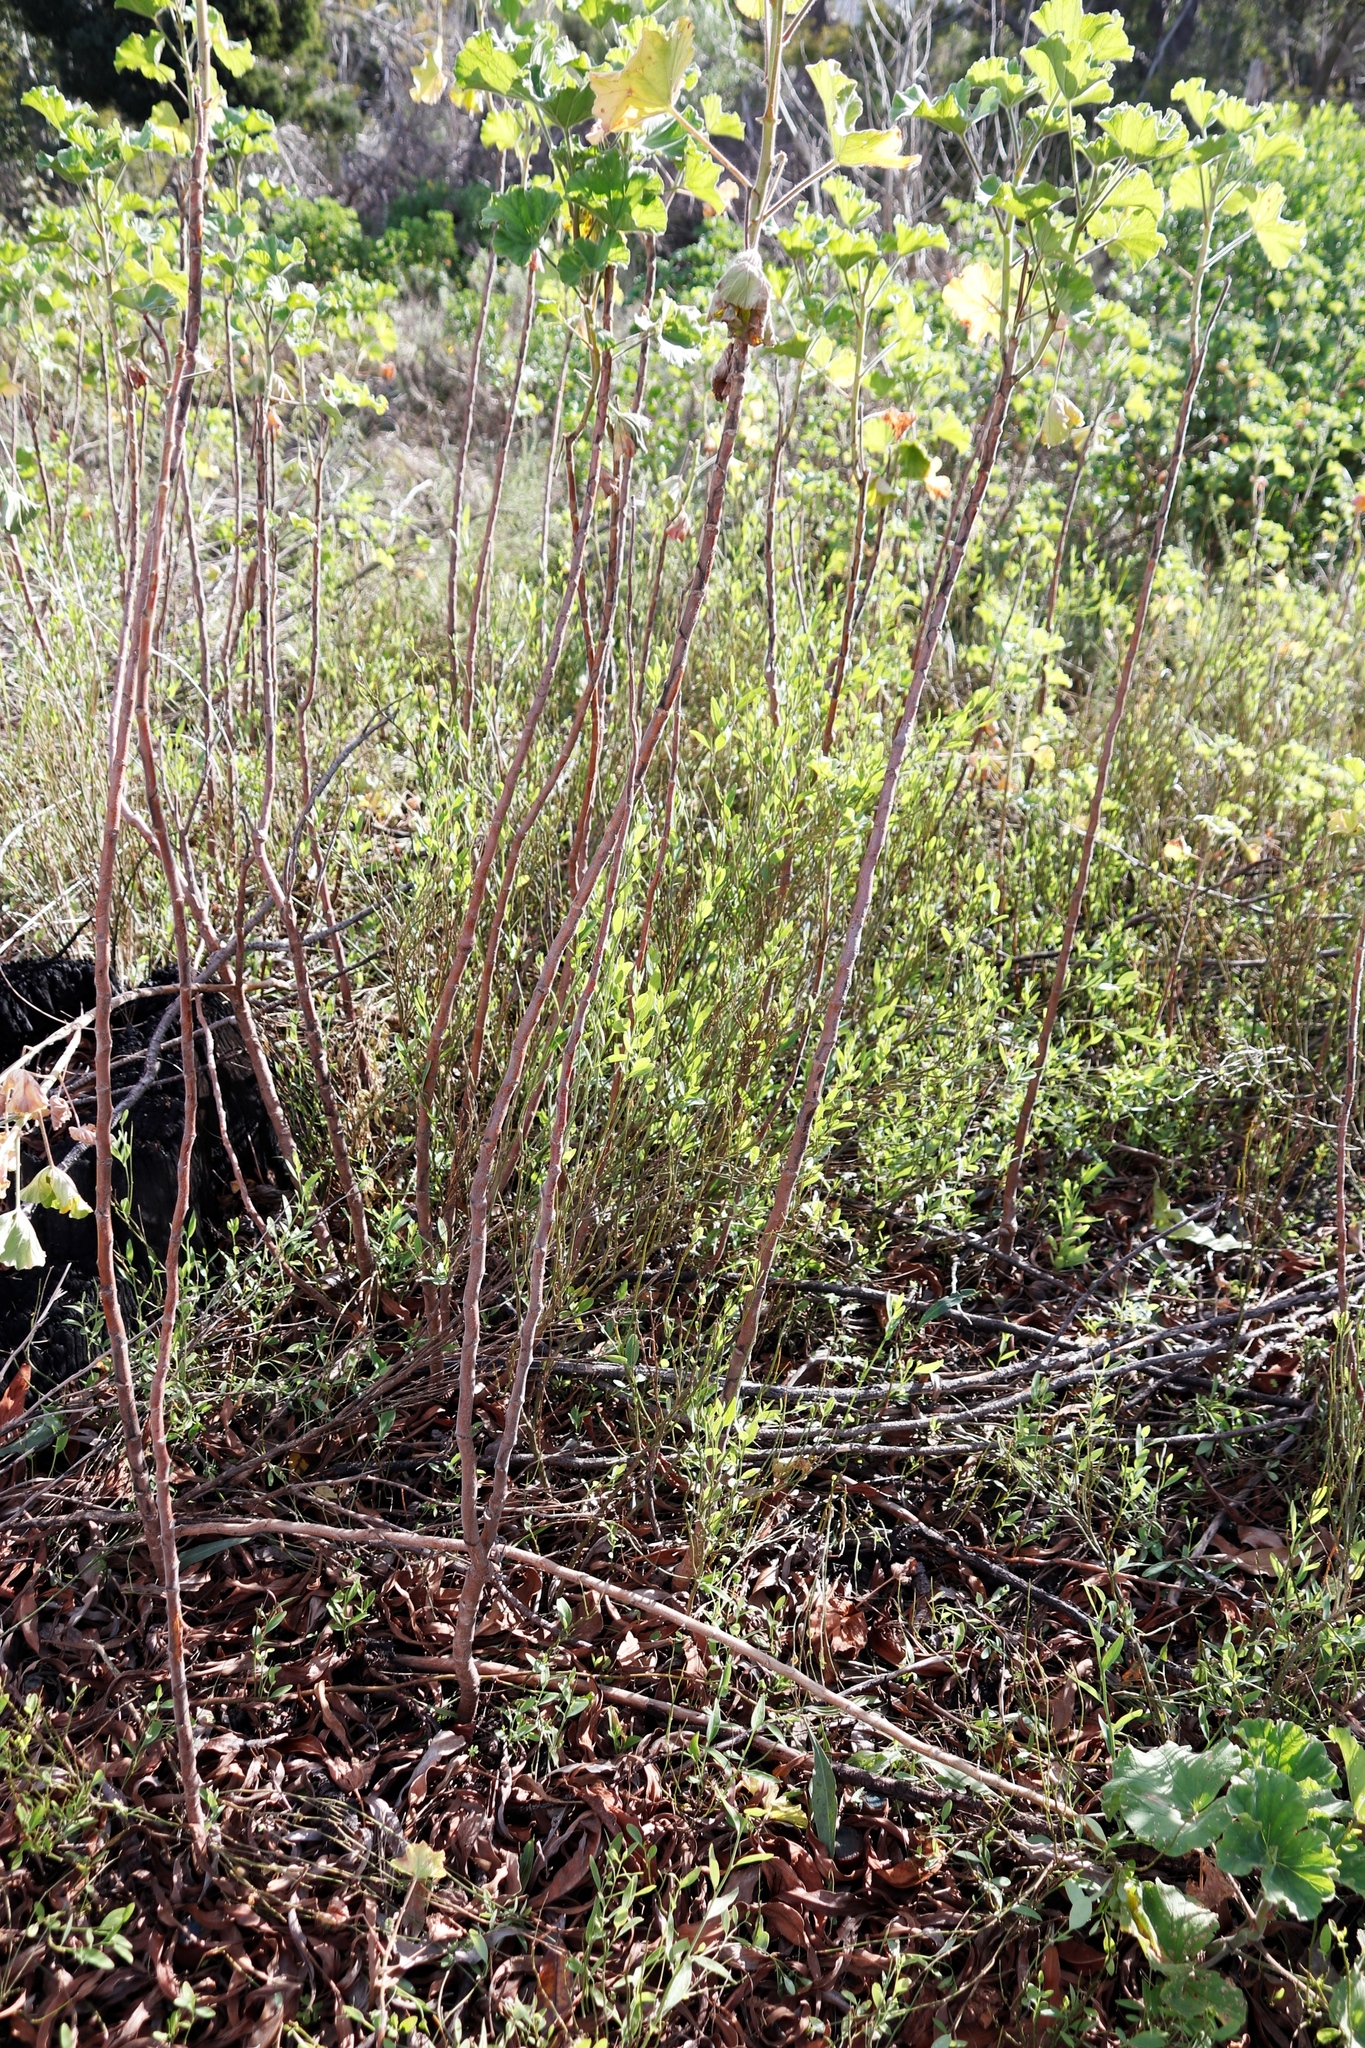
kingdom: Plantae
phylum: Tracheophyta
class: Magnoliopsida
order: Geraniales
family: Geraniaceae
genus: Pelargonium
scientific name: Pelargonium cucullatum
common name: Tree pelargonium
